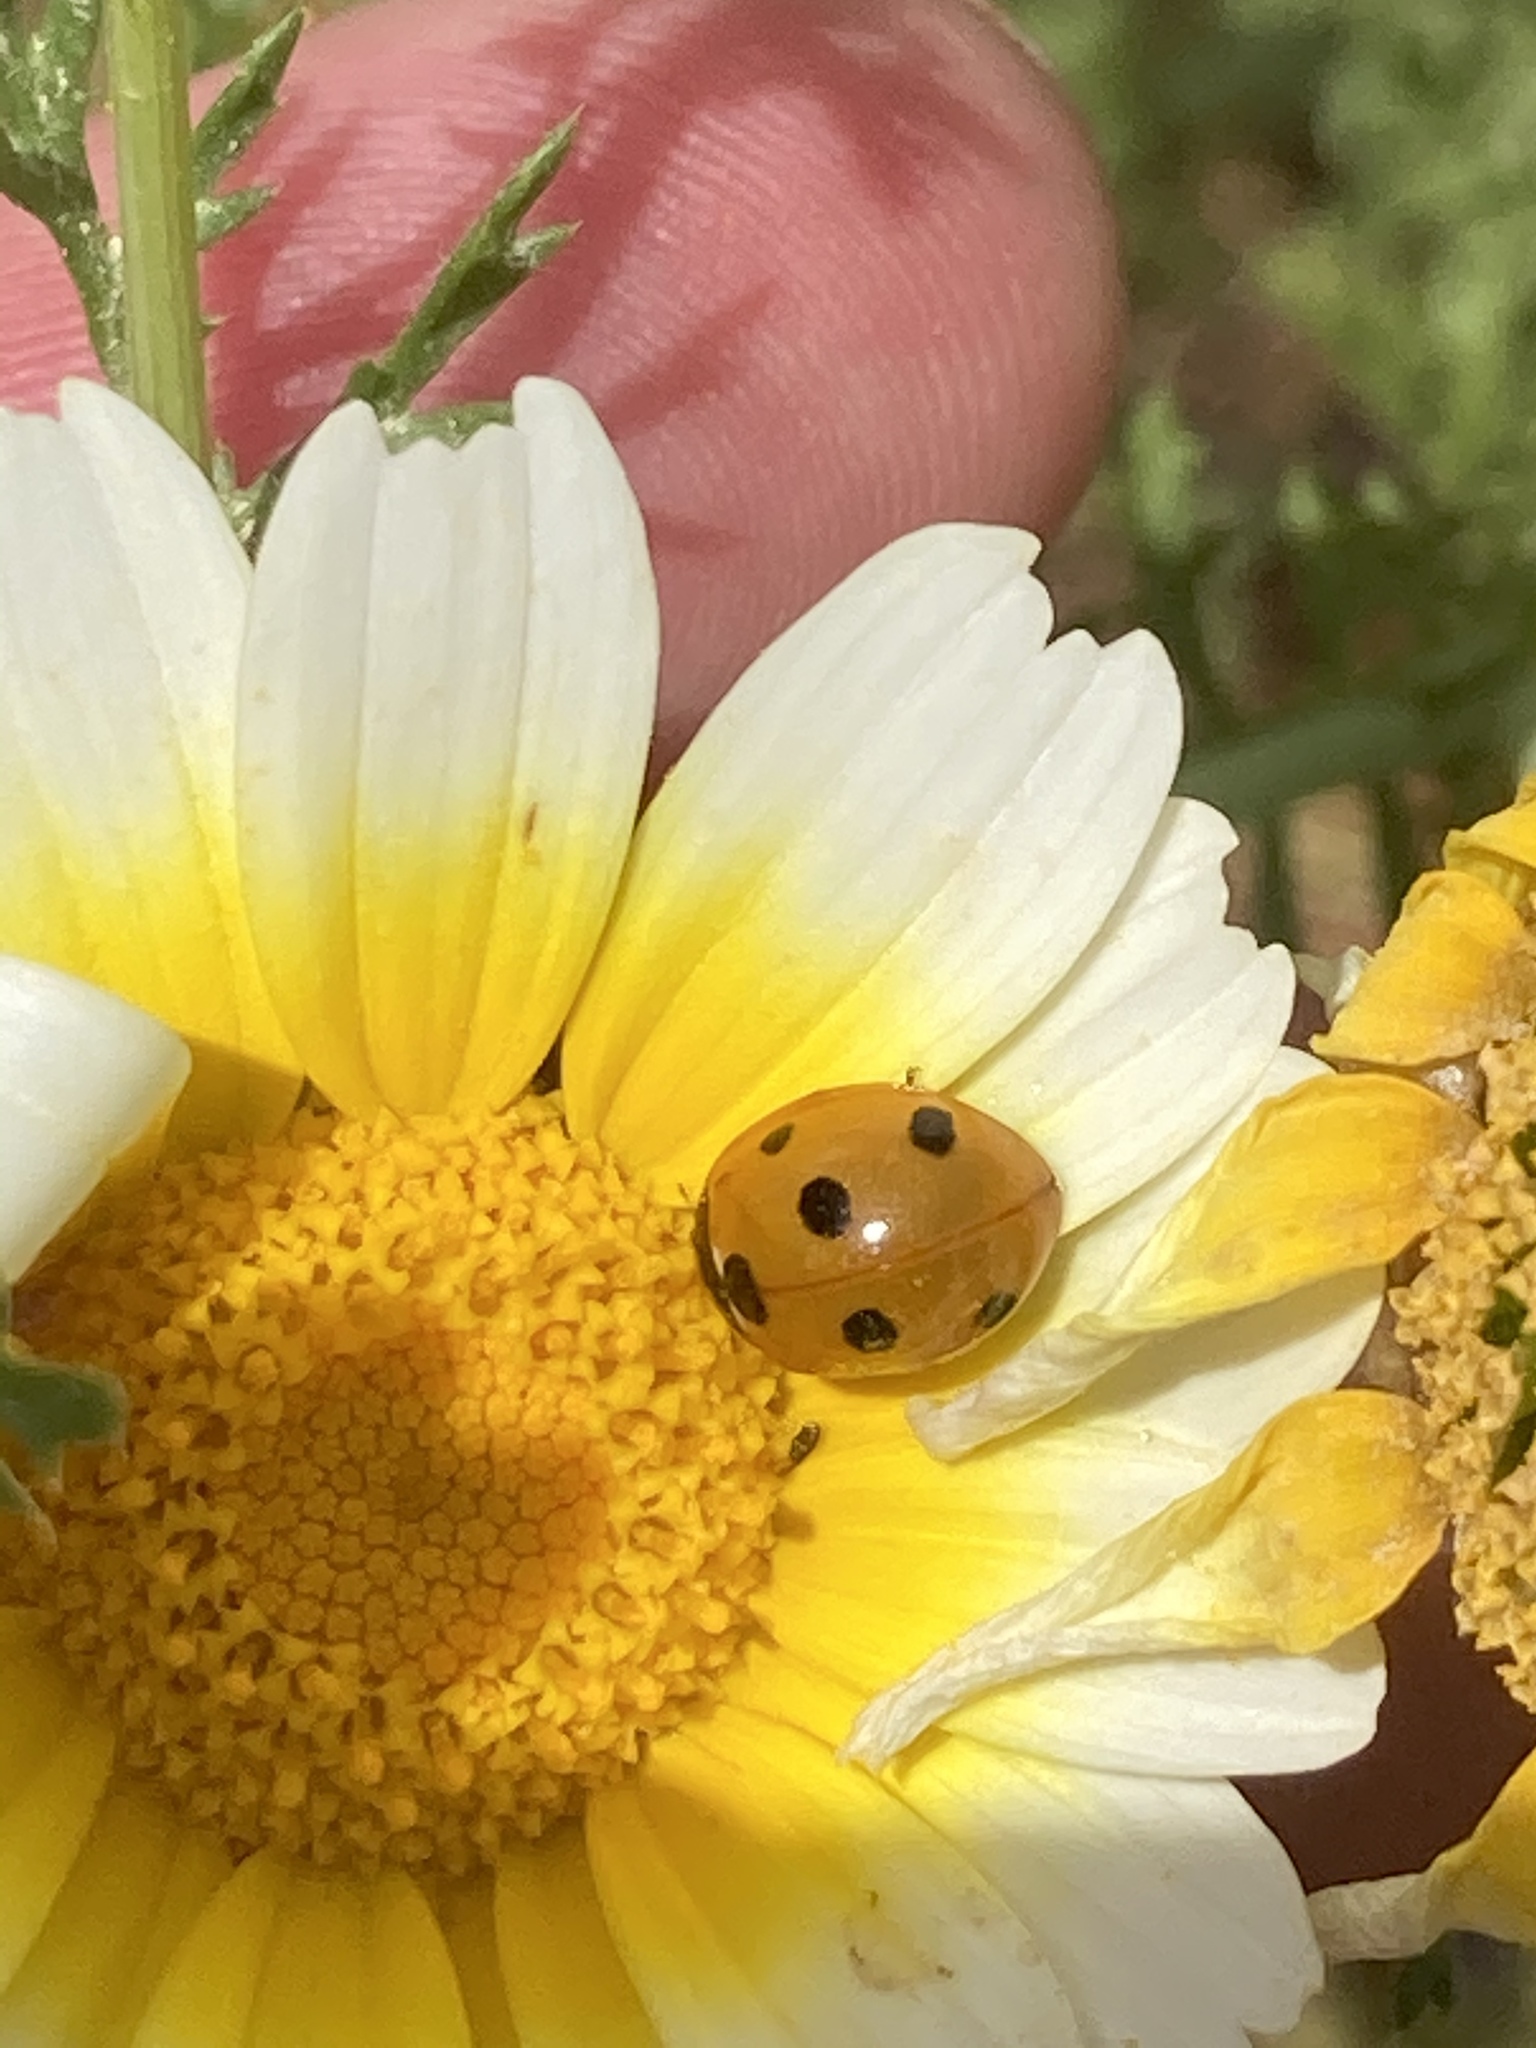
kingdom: Animalia
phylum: Arthropoda
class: Insecta
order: Coleoptera
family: Coccinellidae
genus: Coccinella
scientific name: Coccinella septempunctata
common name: Sevenspotted lady beetle
